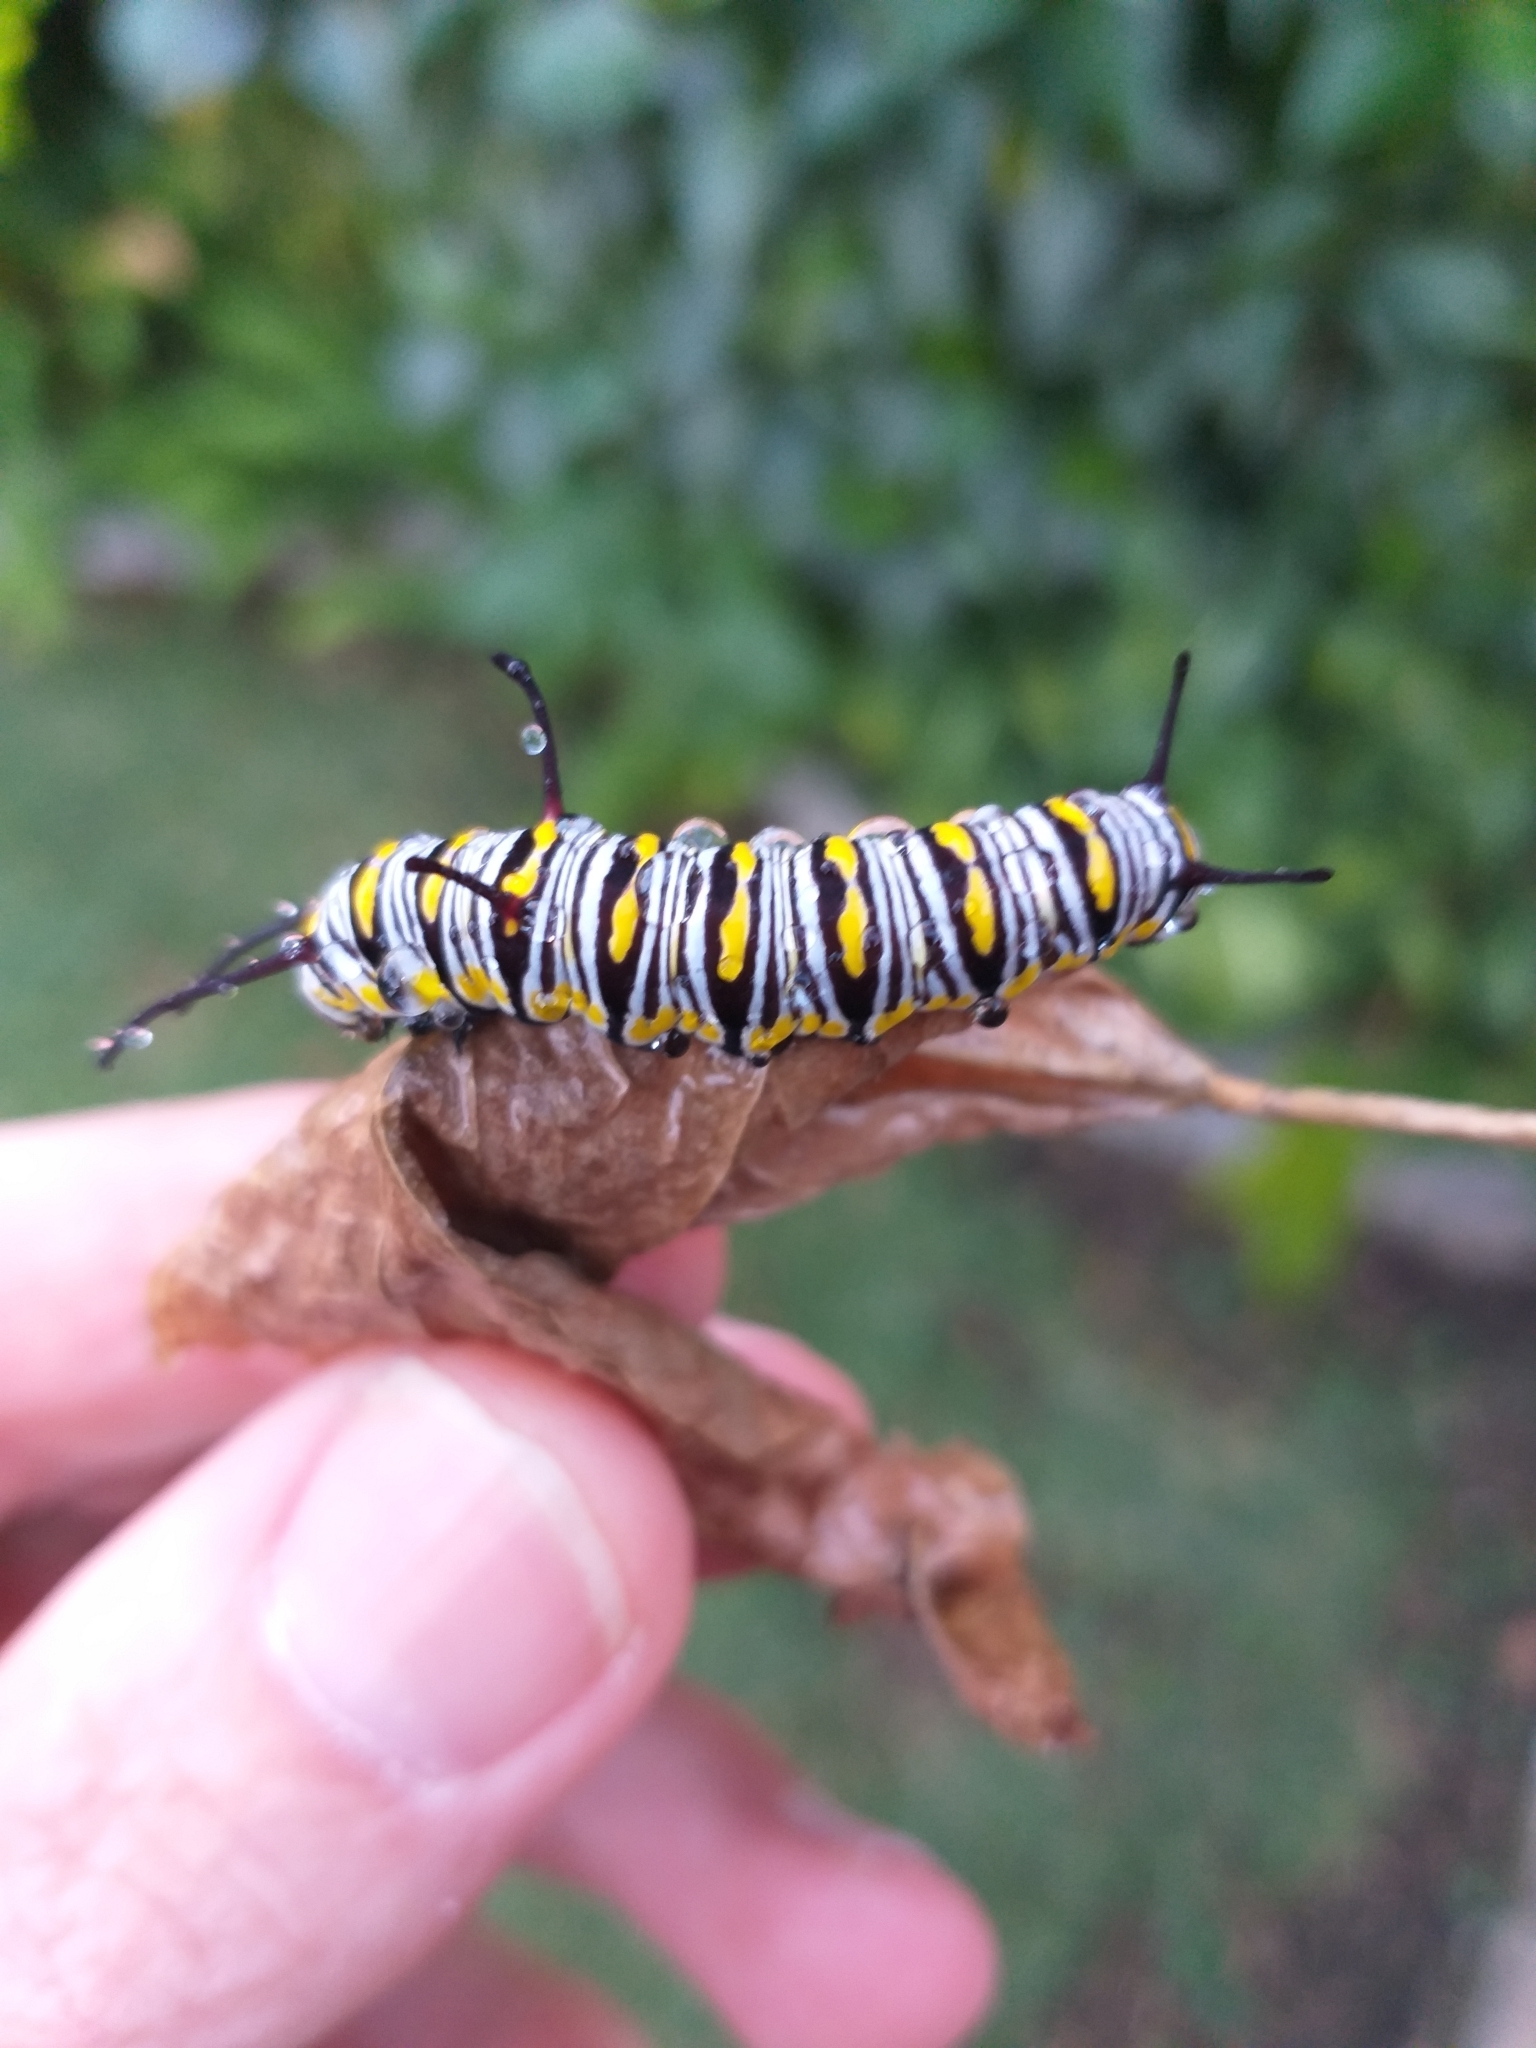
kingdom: Animalia
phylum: Arthropoda
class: Insecta
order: Lepidoptera
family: Nymphalidae
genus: Danaus
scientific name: Danaus gilippus
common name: Queen
